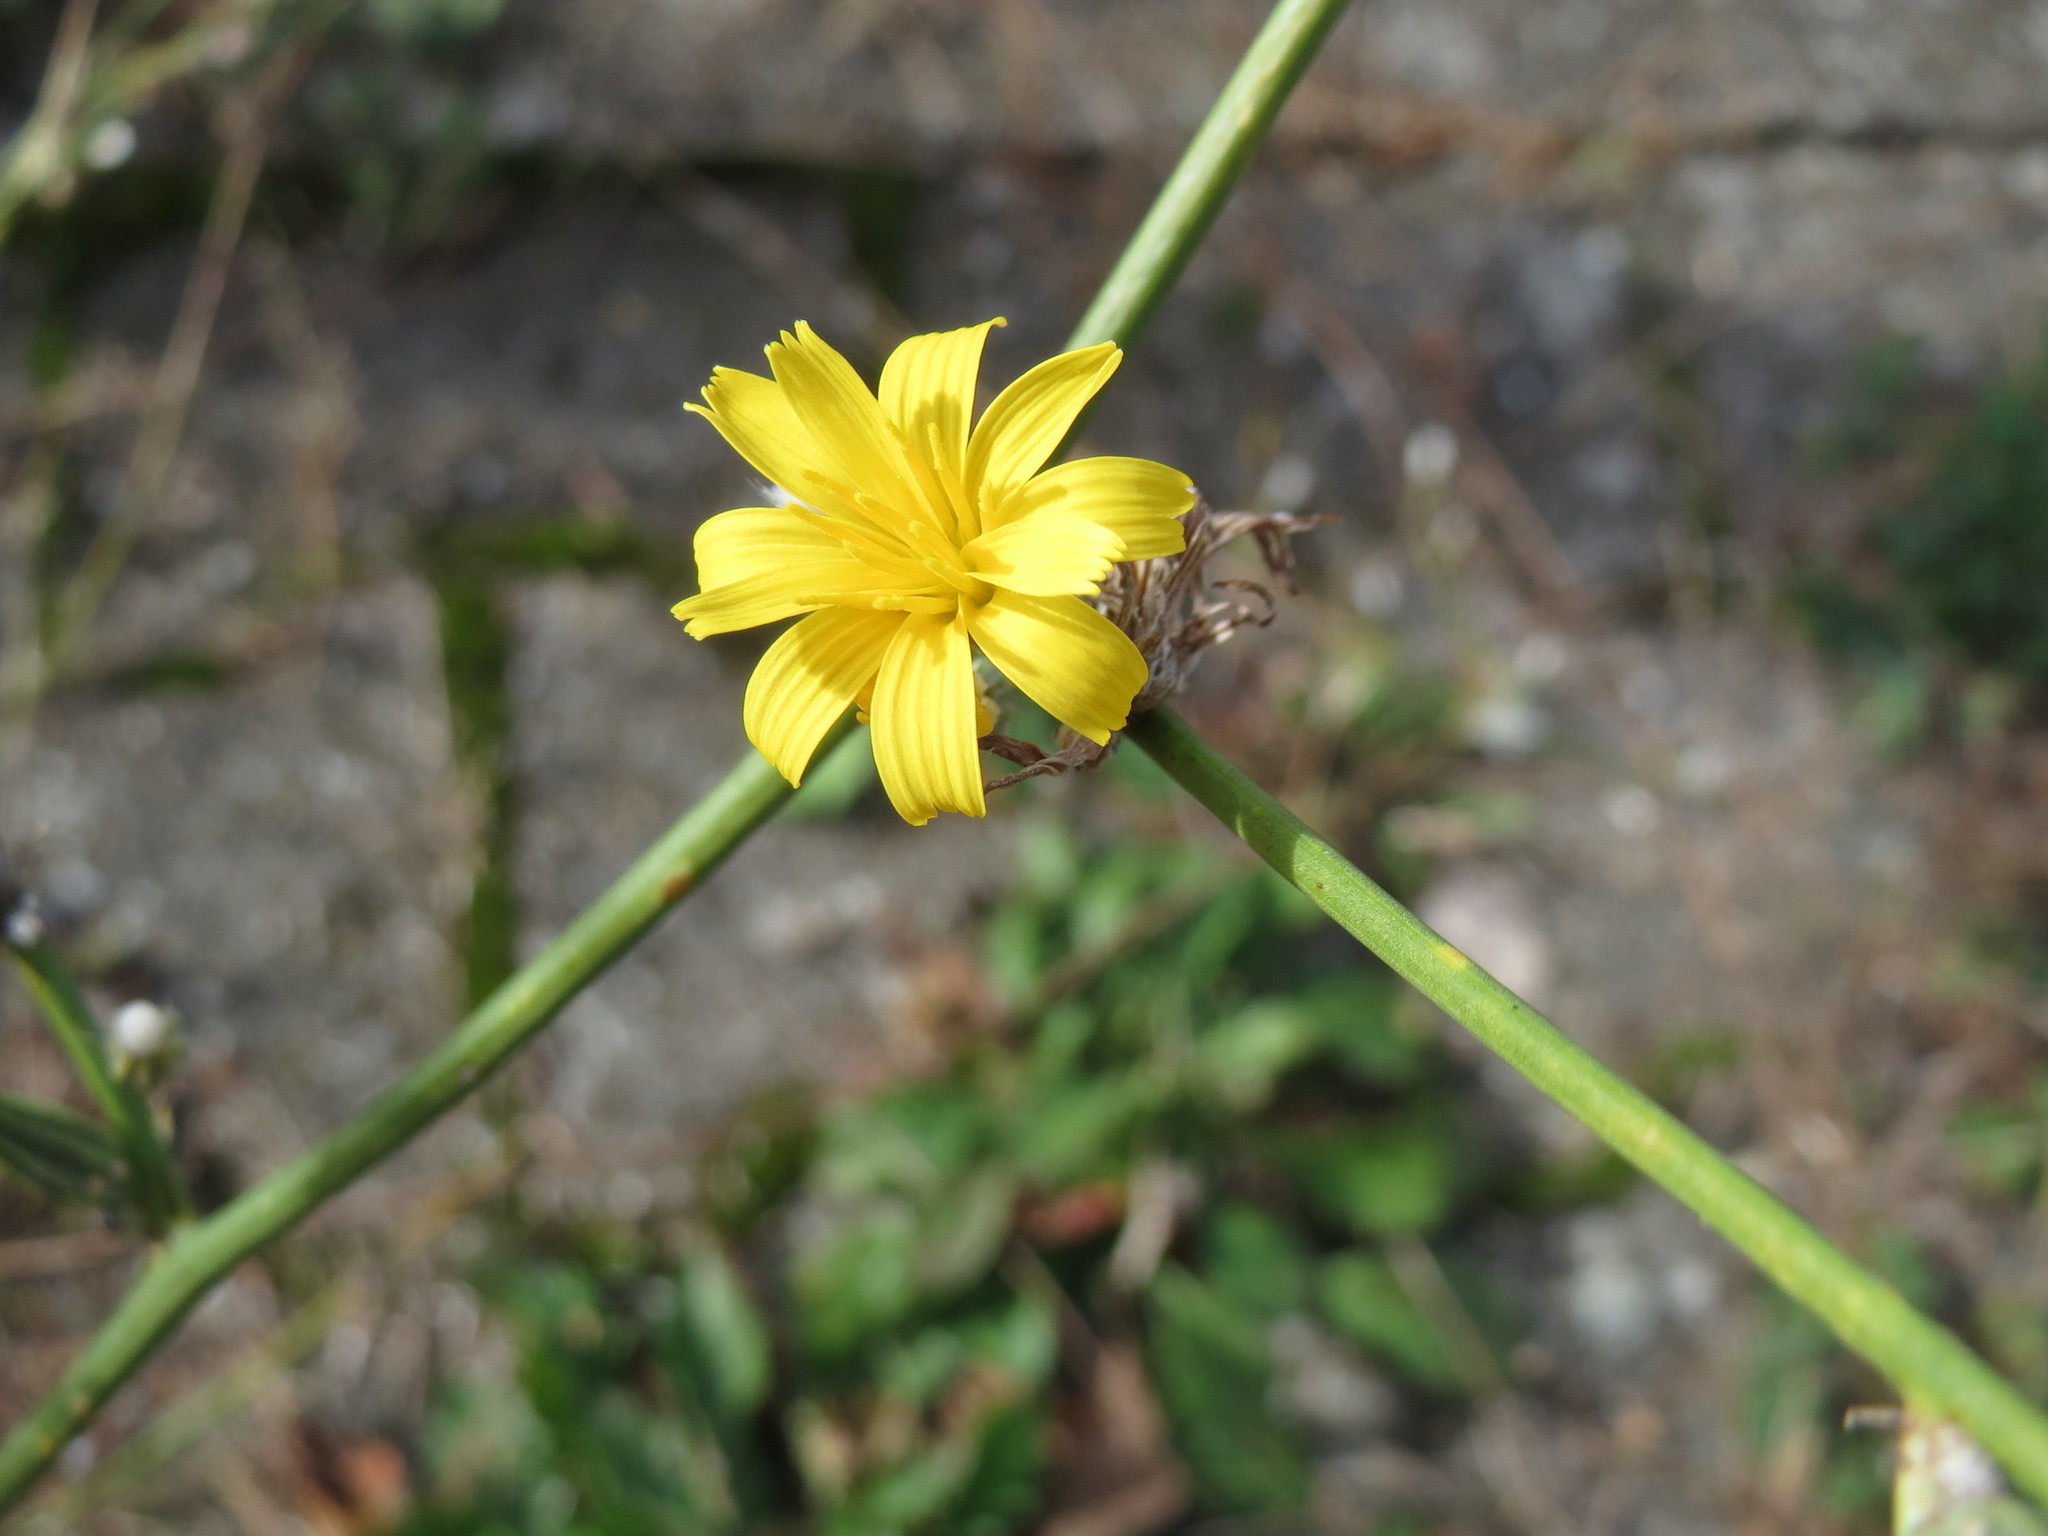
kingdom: Plantae
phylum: Tracheophyta
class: Magnoliopsida
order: Asterales
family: Asteraceae
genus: Chondrilla
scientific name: Chondrilla juncea
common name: Skeleton weed
